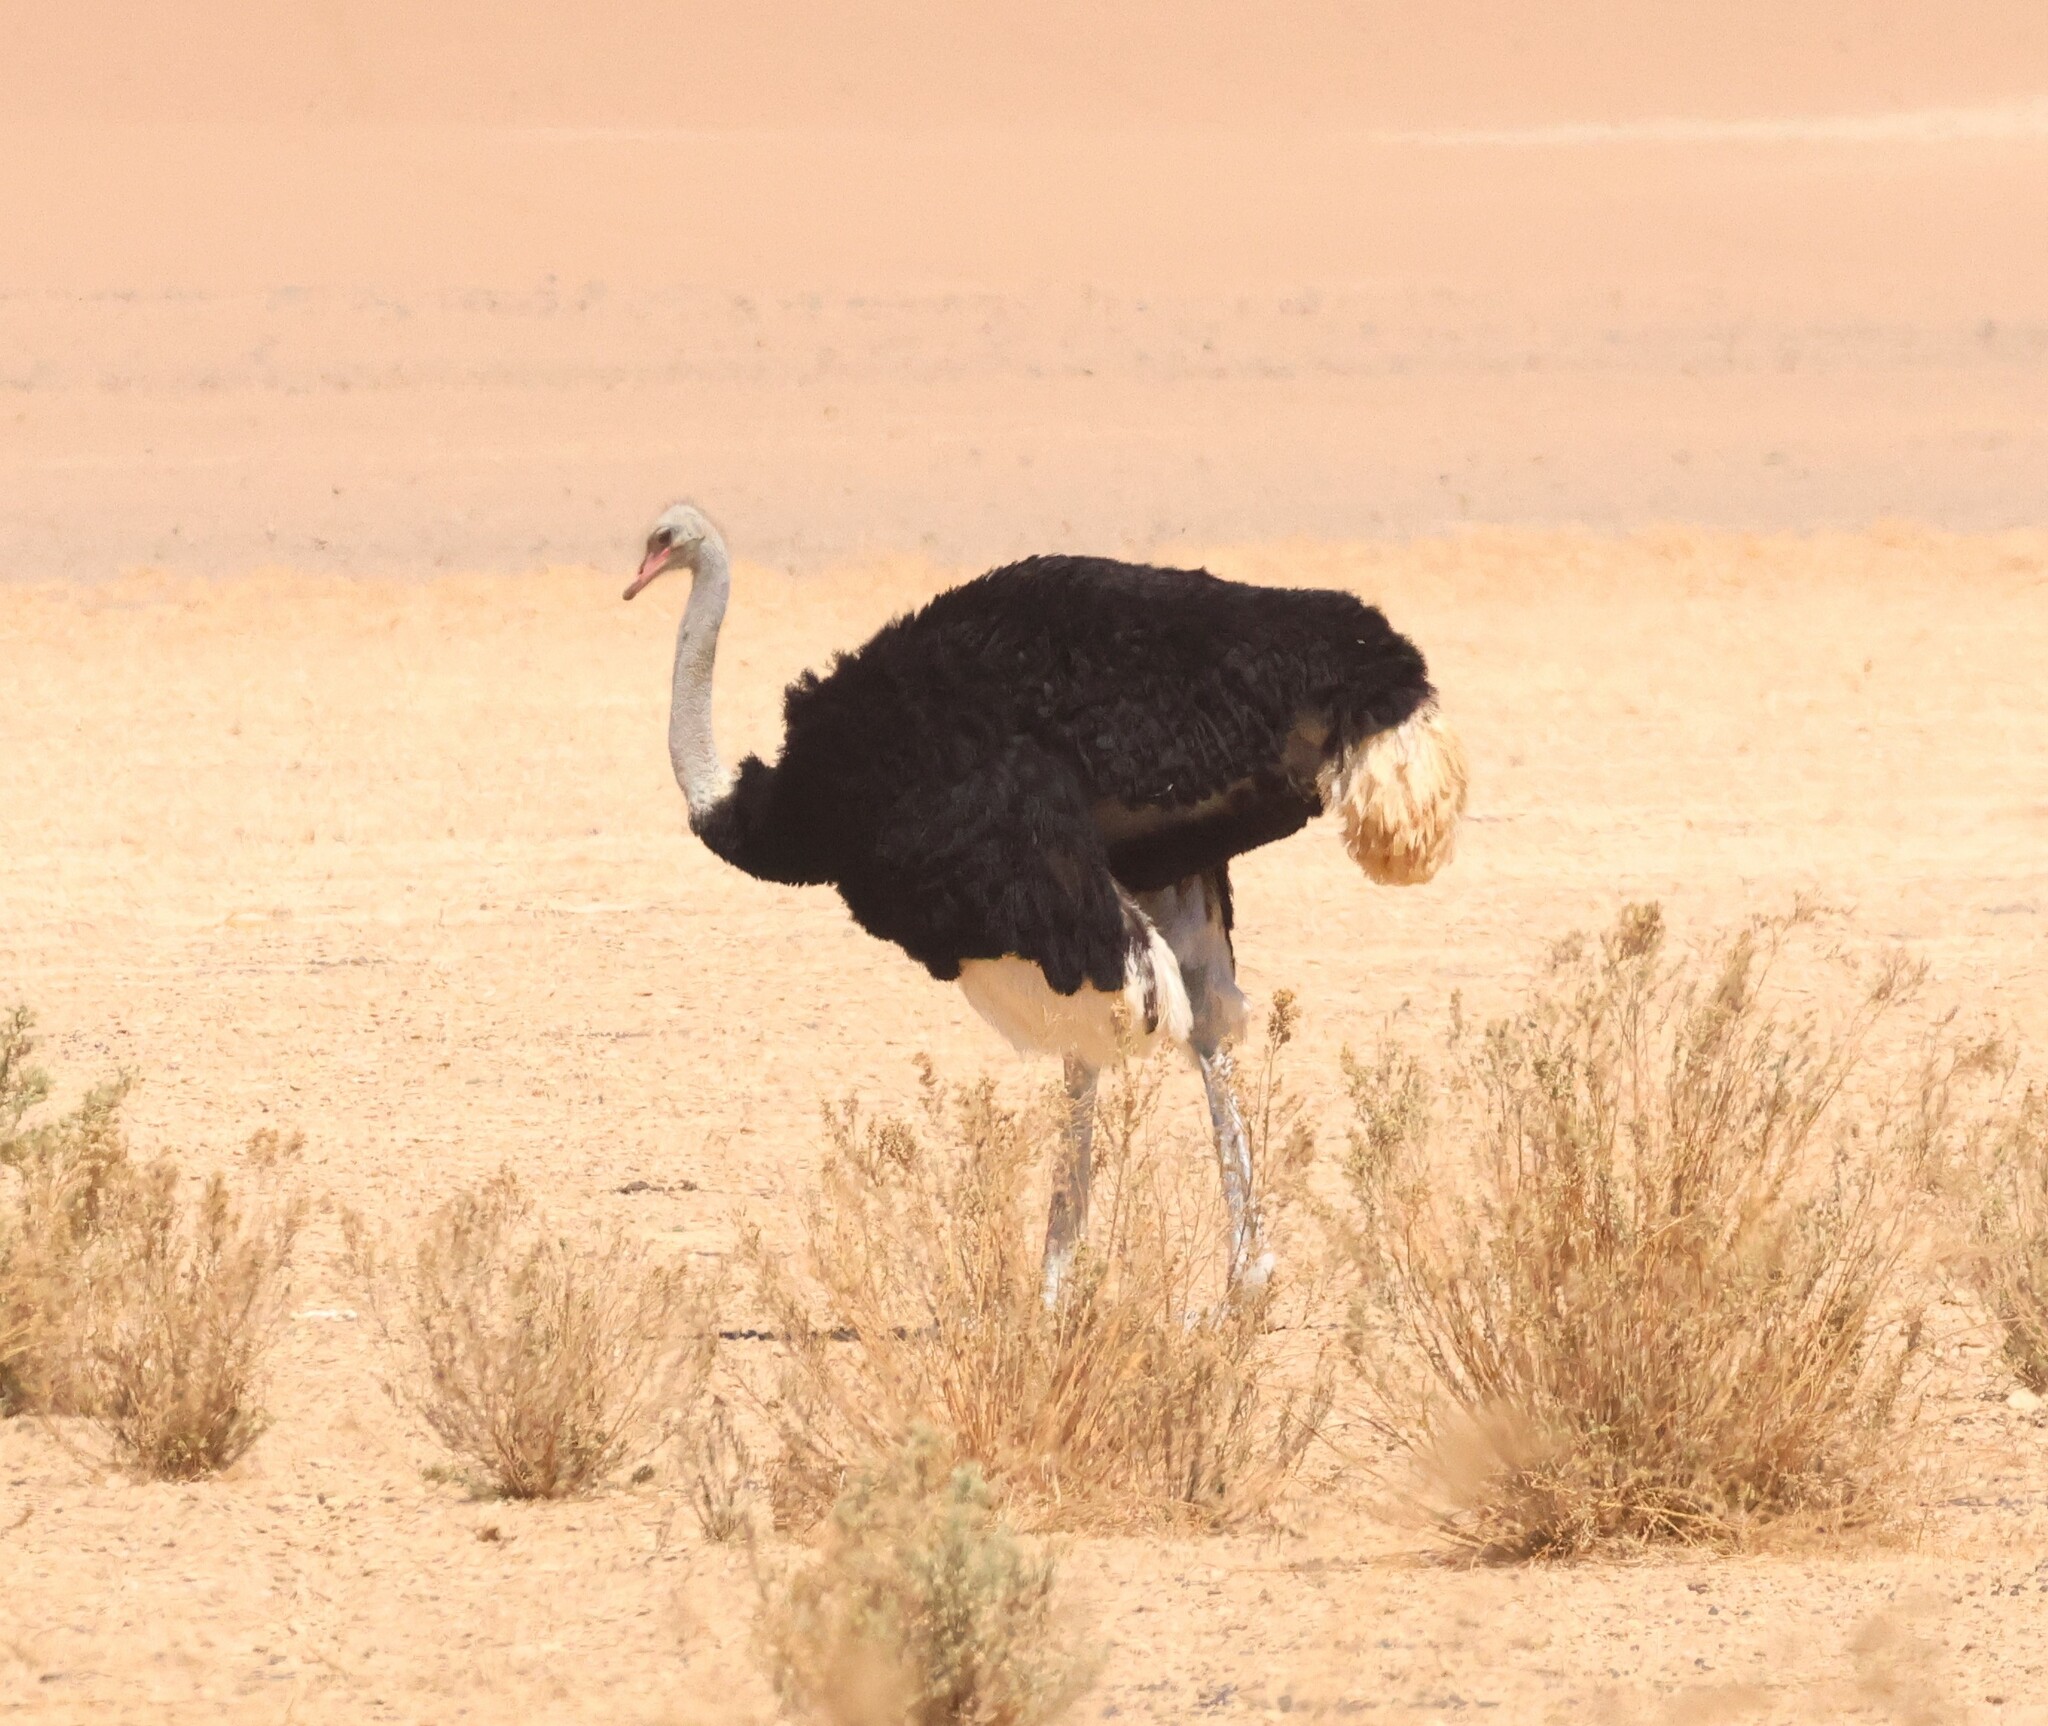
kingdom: Animalia
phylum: Chordata
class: Aves
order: Struthioniformes
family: Struthionidae
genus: Struthio
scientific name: Struthio camelus
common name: Common ostrich
